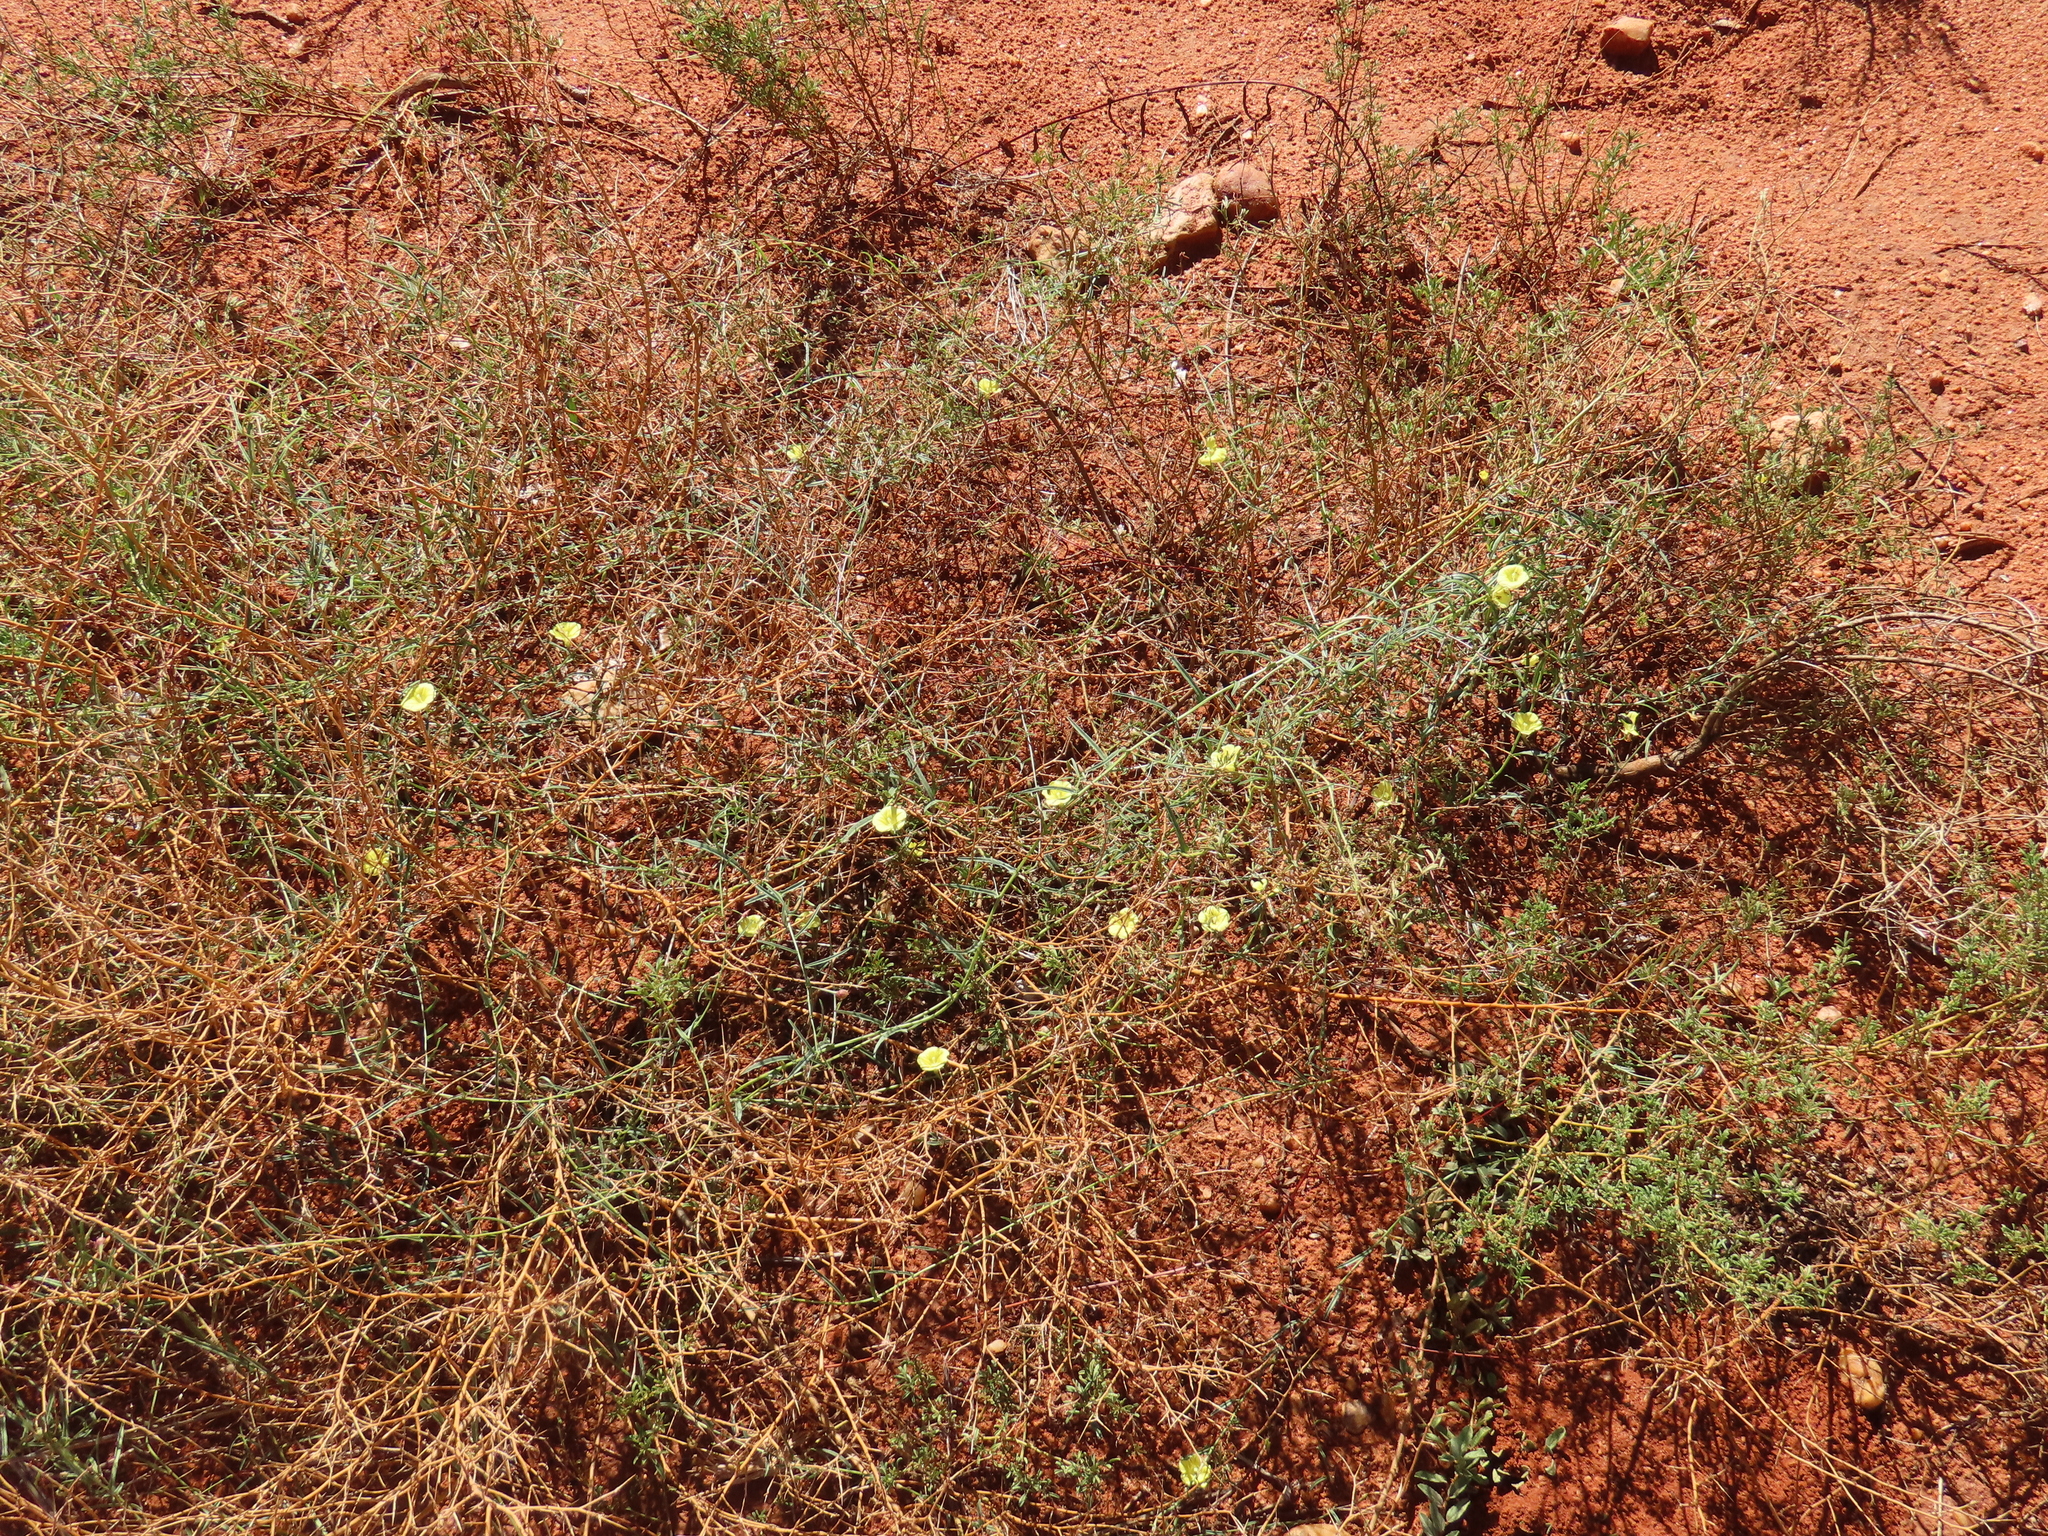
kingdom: Plantae
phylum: Tracheophyta
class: Magnoliopsida
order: Solanales
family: Convolvulaceae
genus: Xenostegia
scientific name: Xenostegia tridentata
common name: African morningvine
